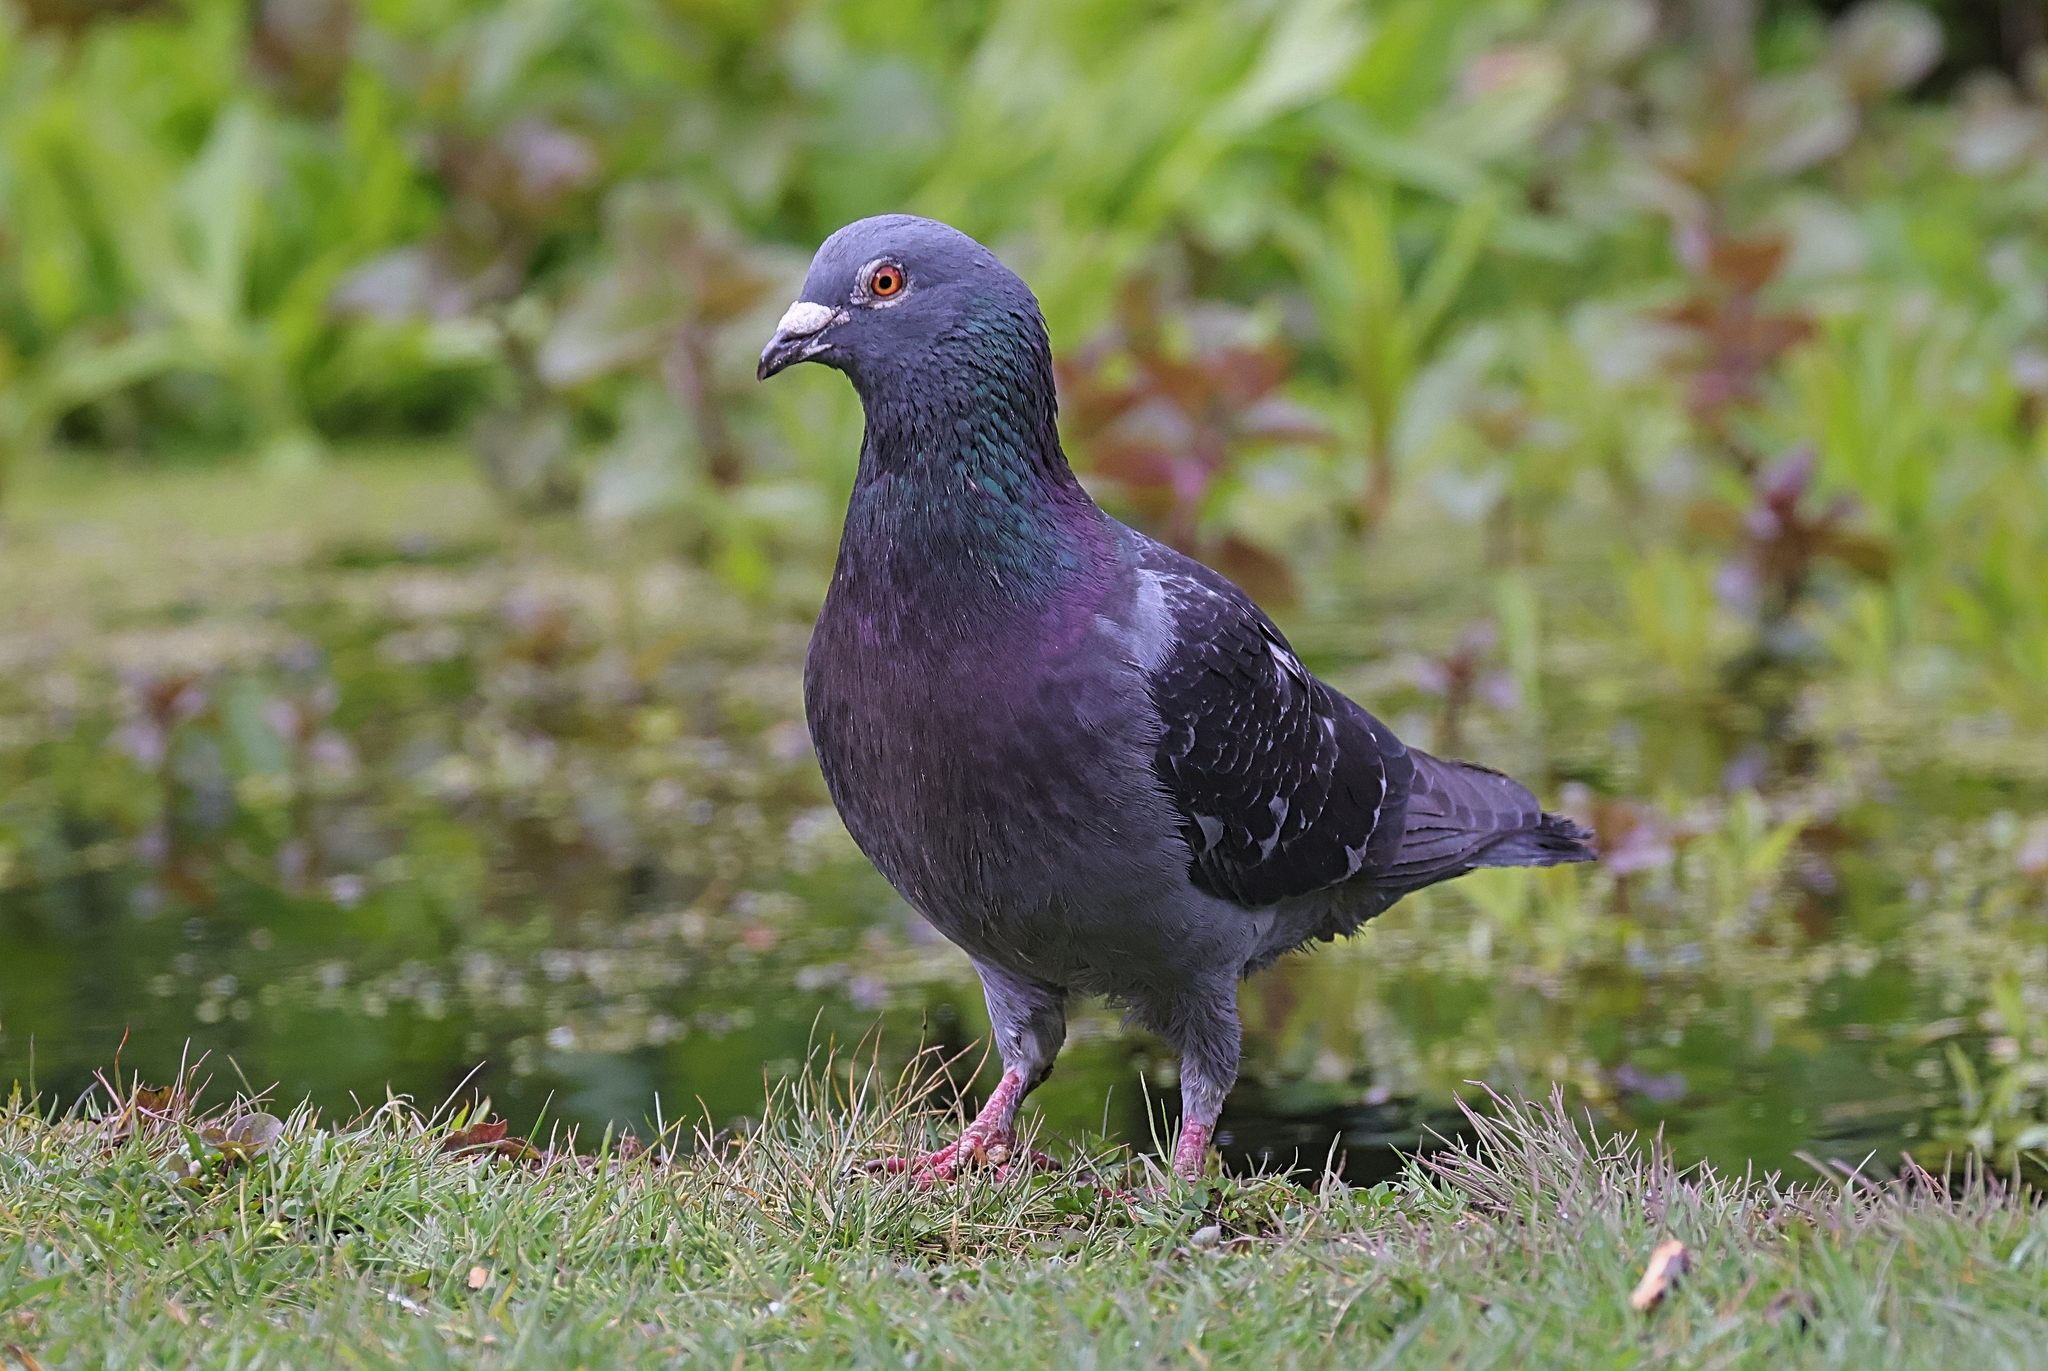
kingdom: Animalia
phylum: Chordata
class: Aves
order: Columbiformes
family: Columbidae
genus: Columba
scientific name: Columba livia
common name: Rock pigeon
